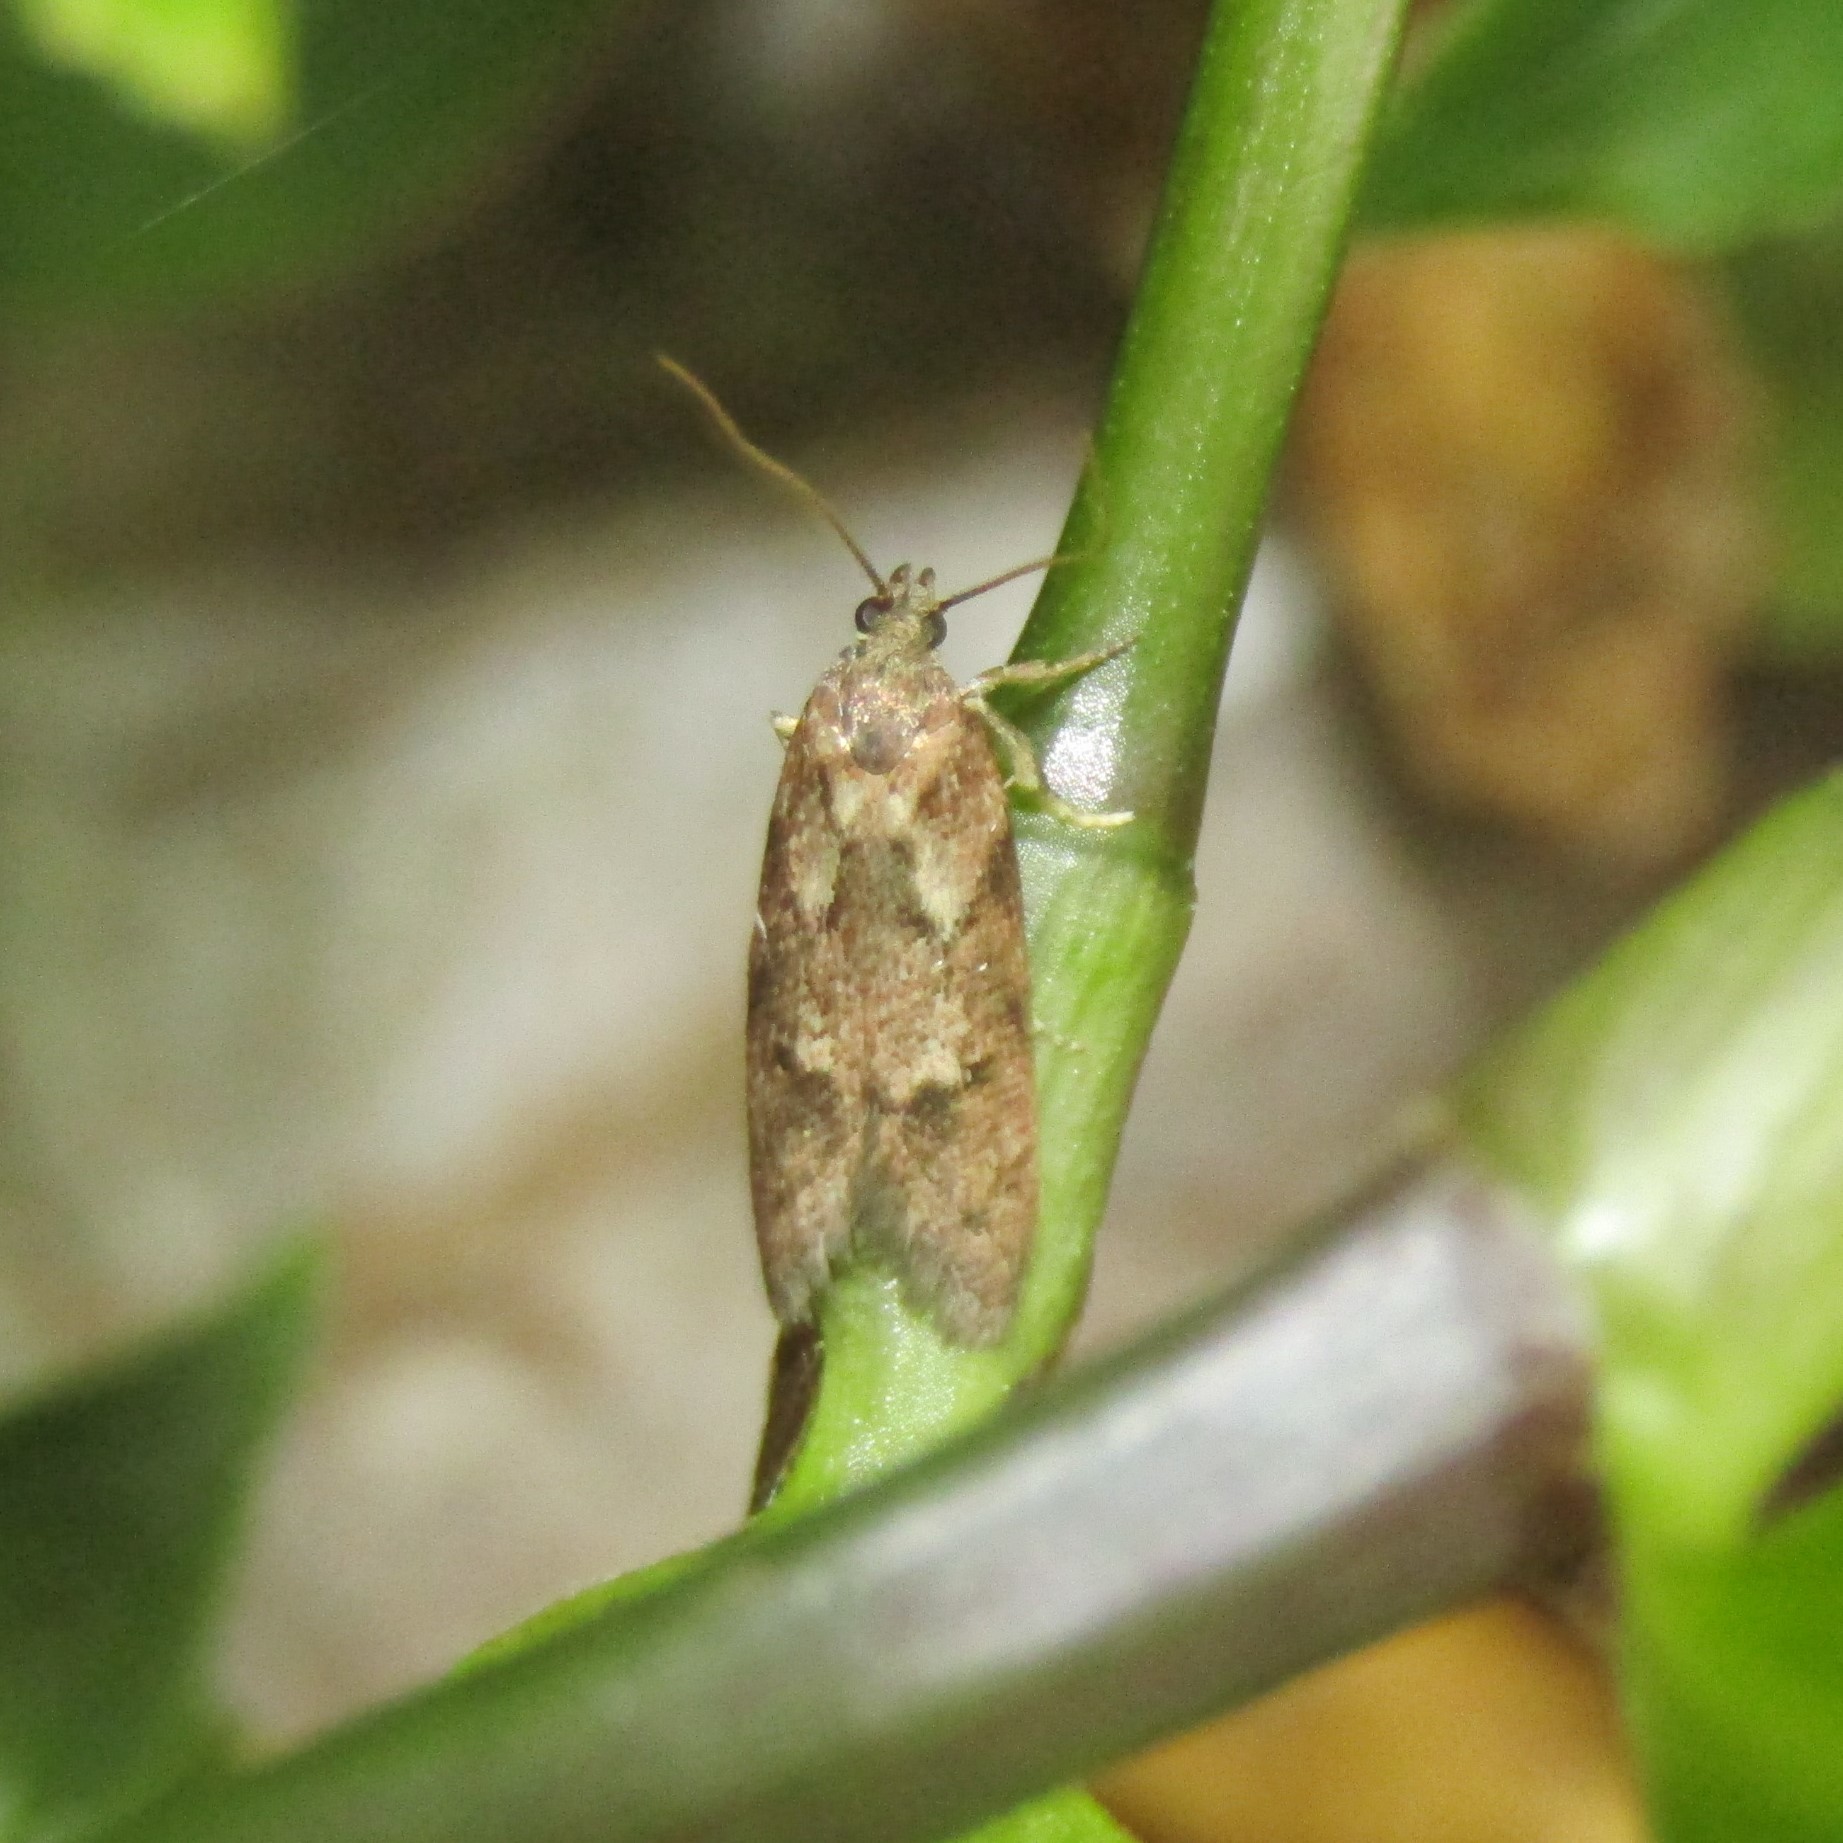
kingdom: Animalia
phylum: Arthropoda
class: Insecta
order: Lepidoptera
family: Oecophoridae
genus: Chersadaula
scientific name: Chersadaula ochrogastra
